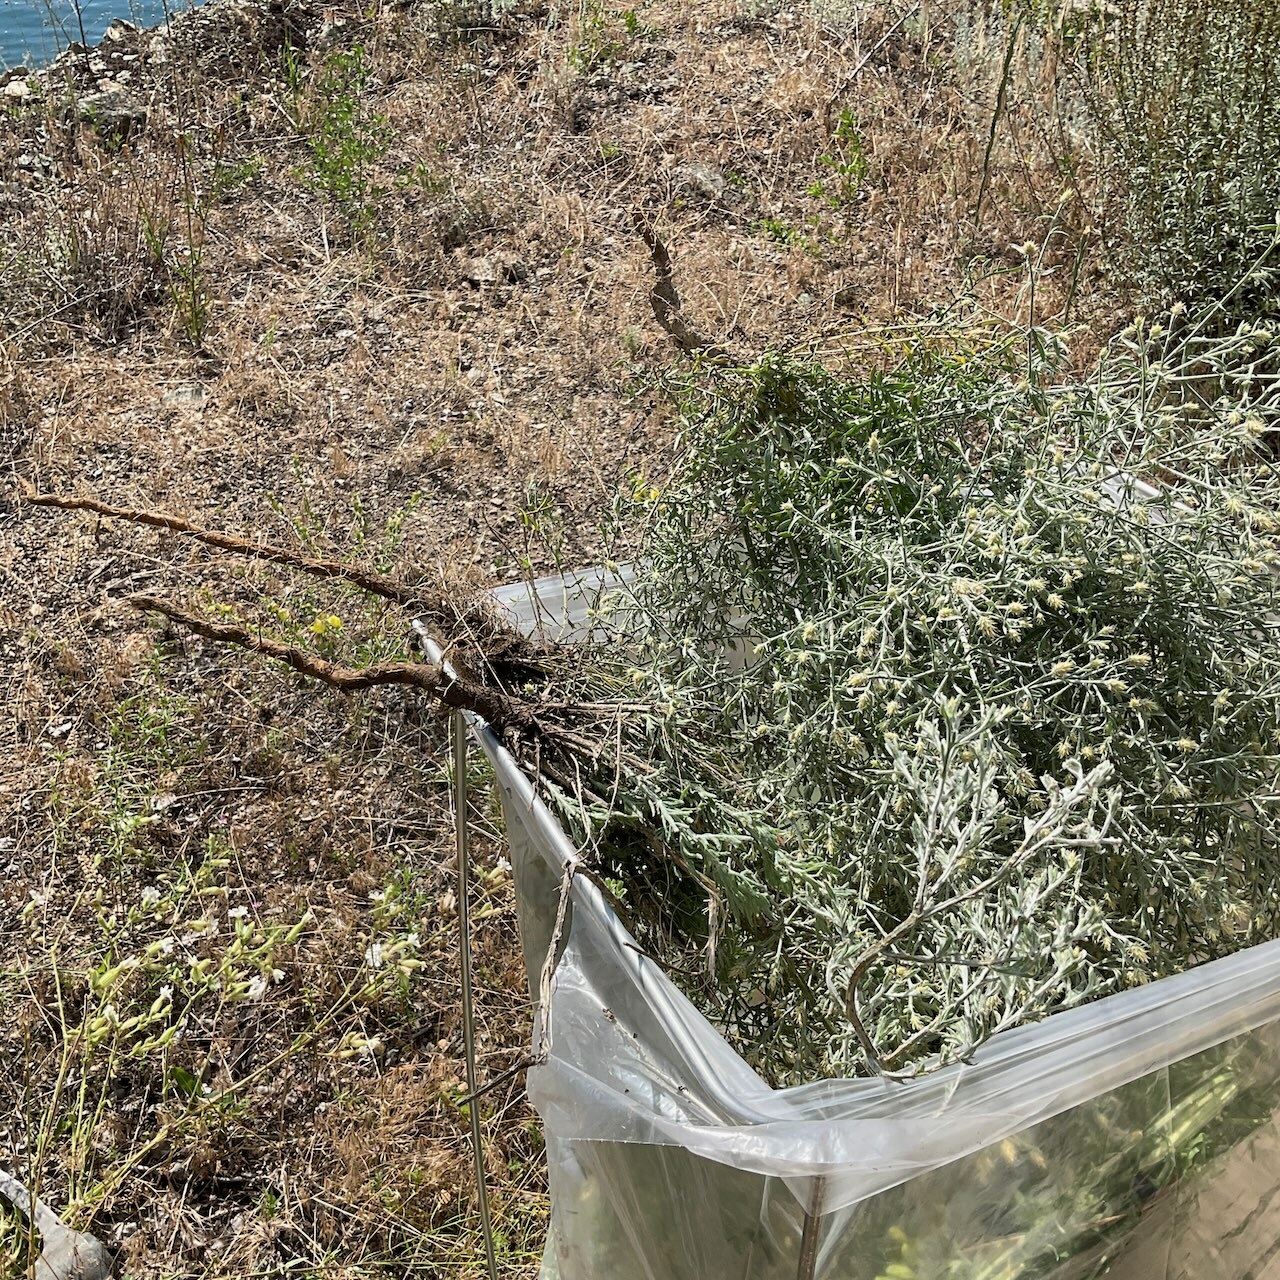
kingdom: Plantae
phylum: Tracheophyta
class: Magnoliopsida
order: Asterales
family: Asteraceae
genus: Centaurea
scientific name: Centaurea diffusa
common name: Diffuse knapweed
